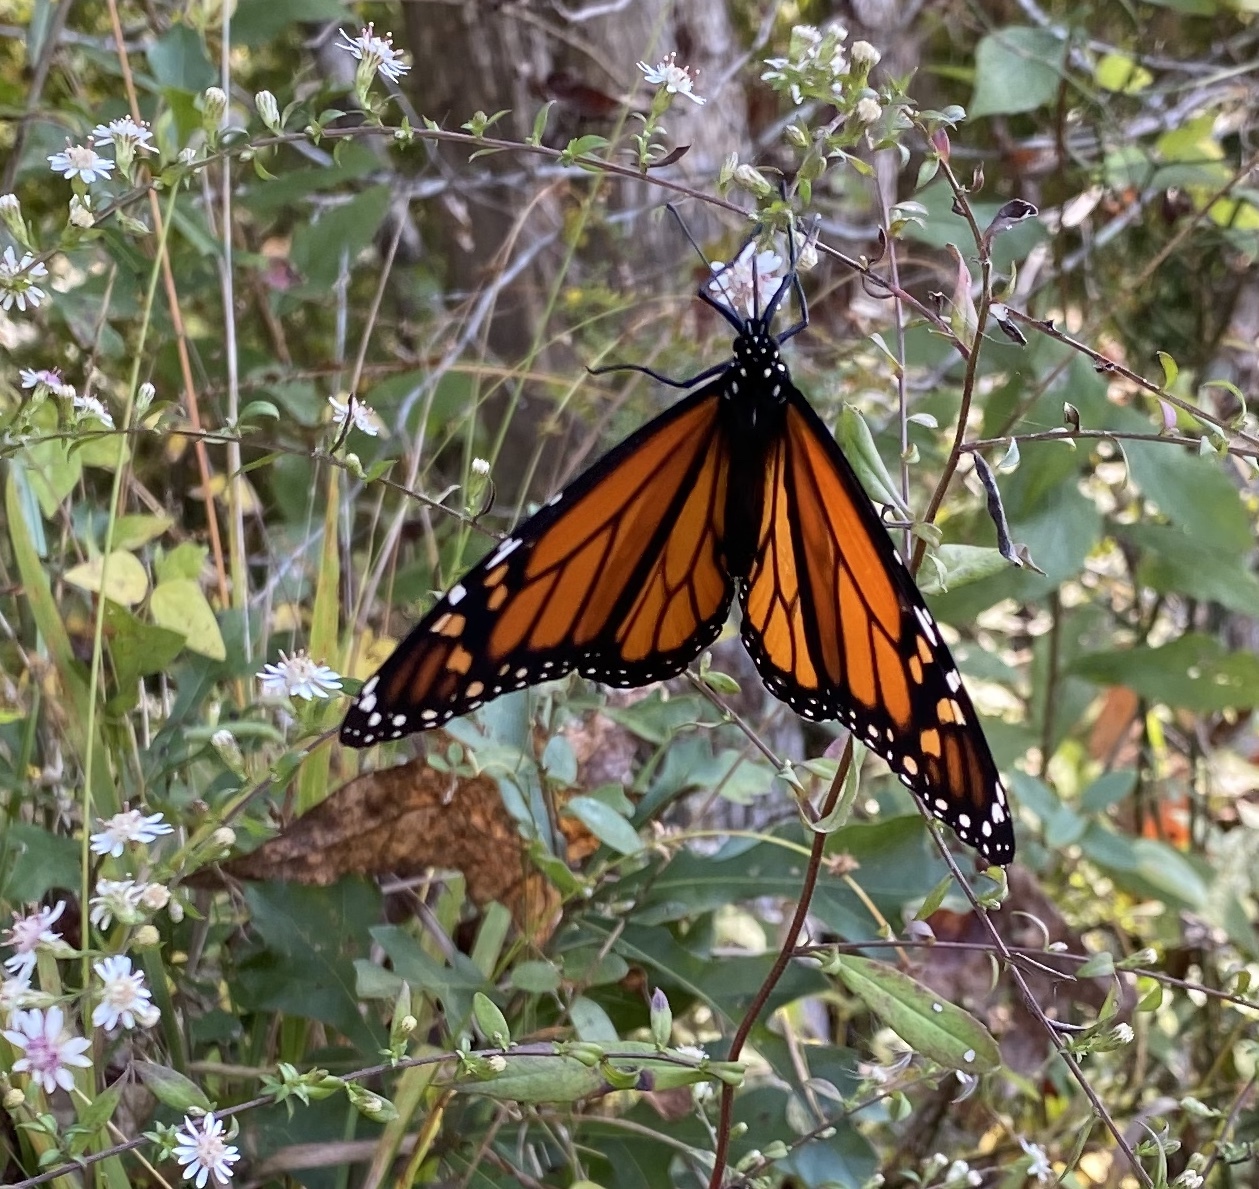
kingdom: Animalia
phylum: Arthropoda
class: Insecta
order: Lepidoptera
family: Nymphalidae
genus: Danaus
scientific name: Danaus plexippus
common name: Monarch
